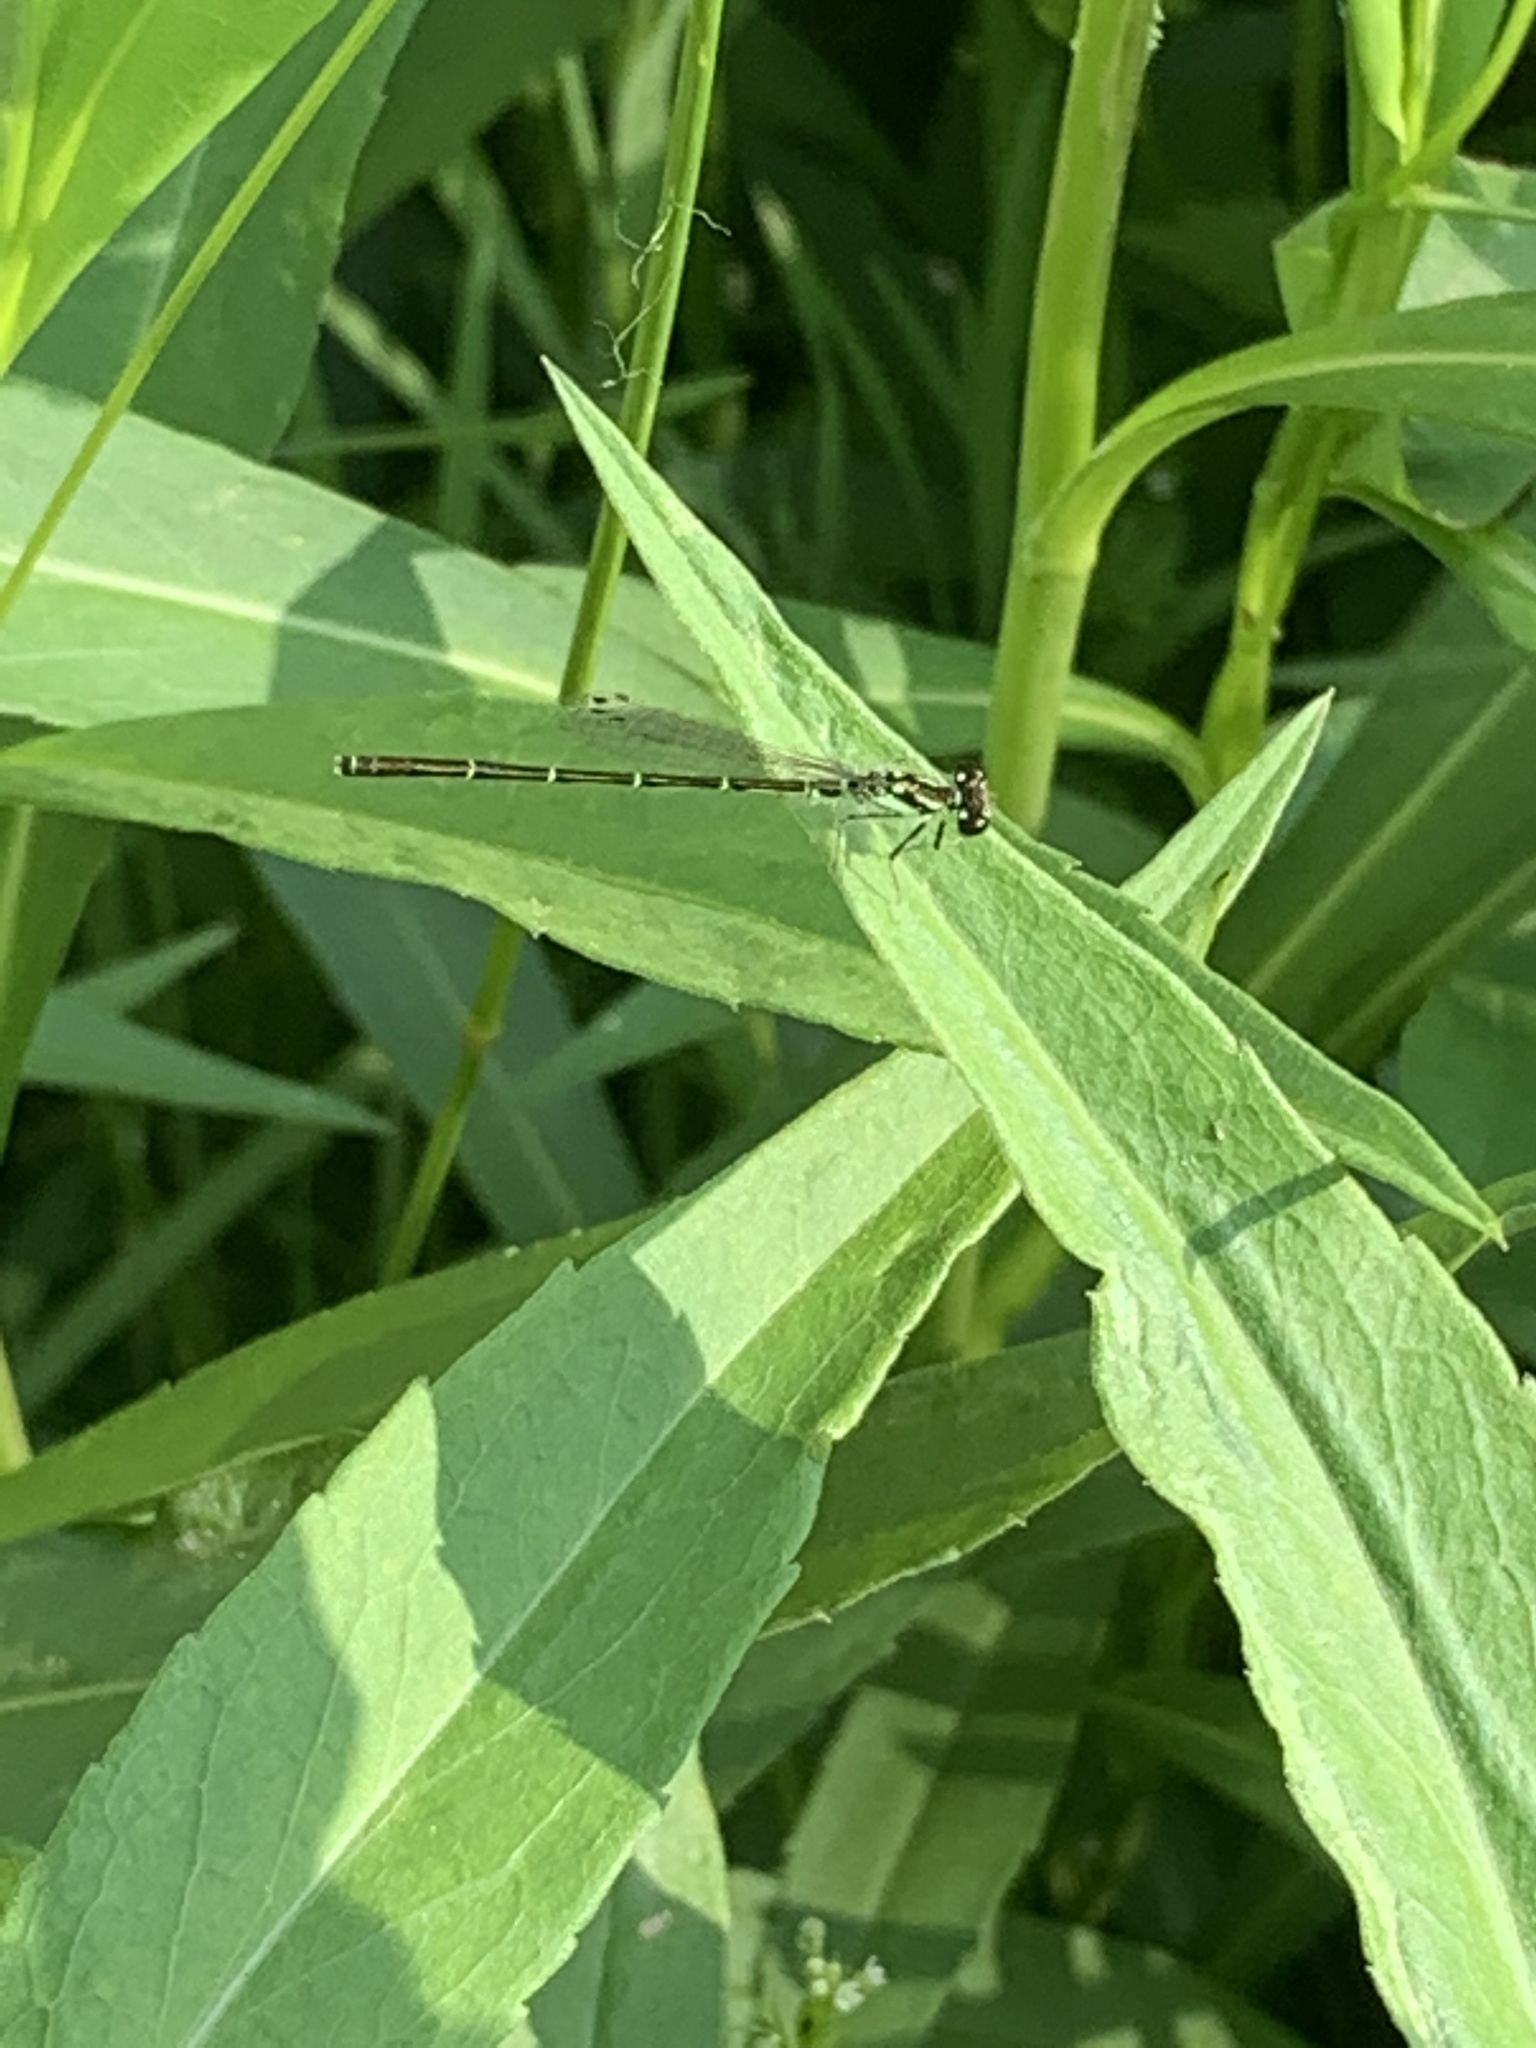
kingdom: Animalia
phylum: Arthropoda
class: Insecta
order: Odonata
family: Coenagrionidae
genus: Ischnura
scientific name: Ischnura posita
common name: Fragile forktail
